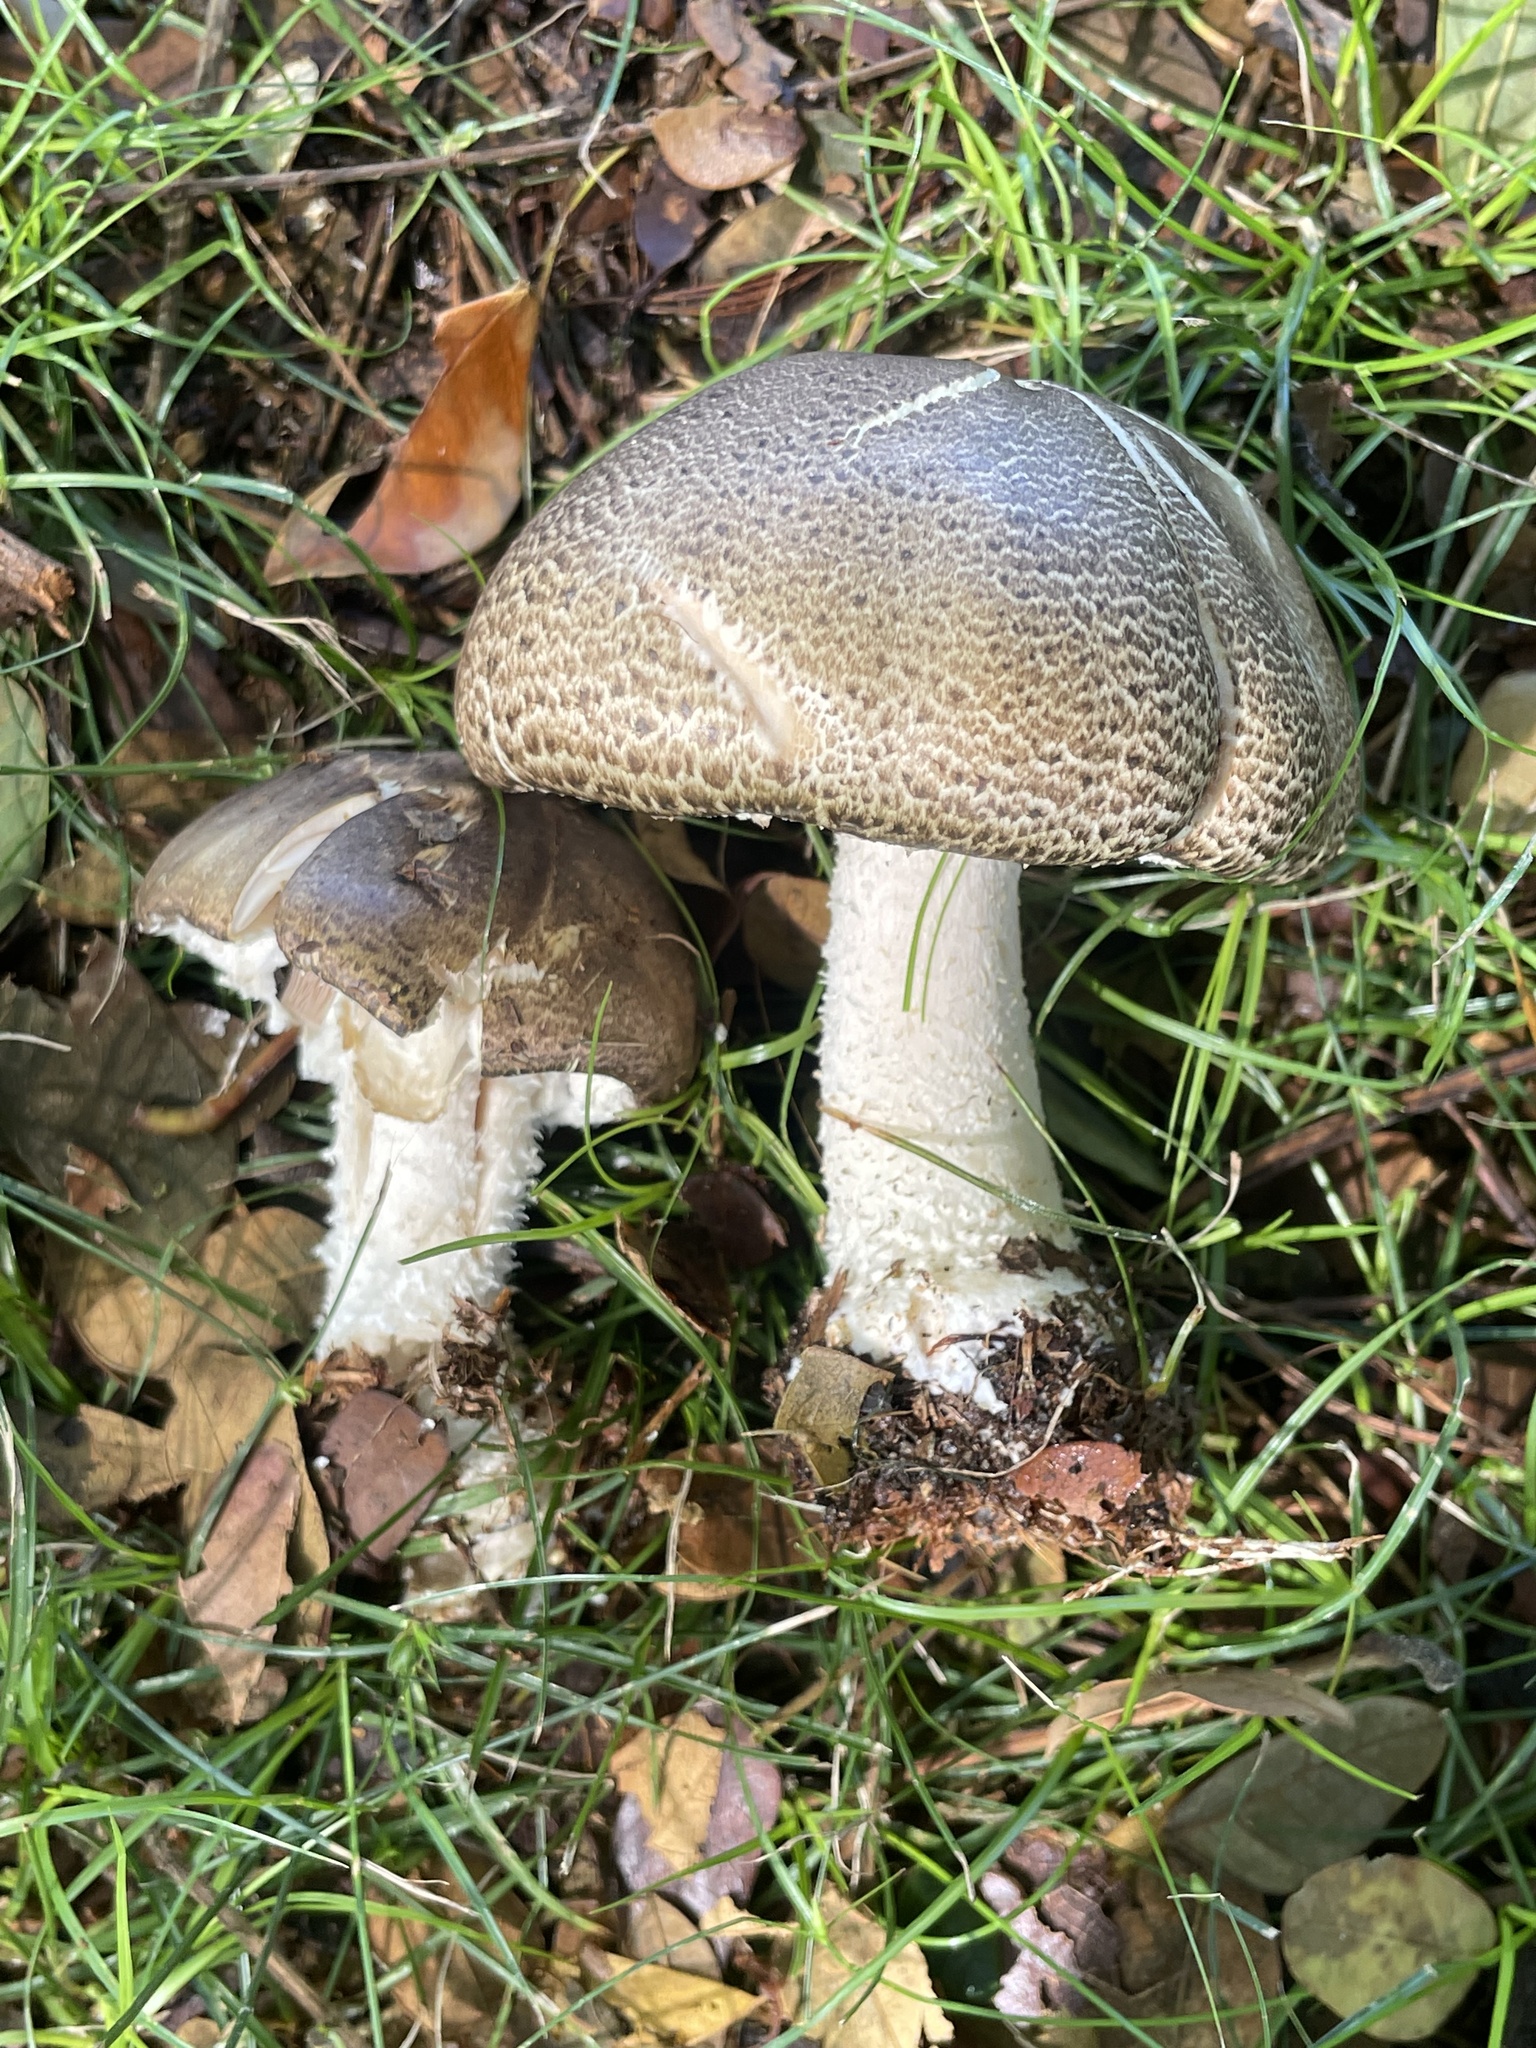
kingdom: Fungi
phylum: Basidiomycota
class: Agaricomycetes
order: Agaricales
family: Agaricaceae
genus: Agaricus
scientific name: Agaricus augustus
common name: Prince
